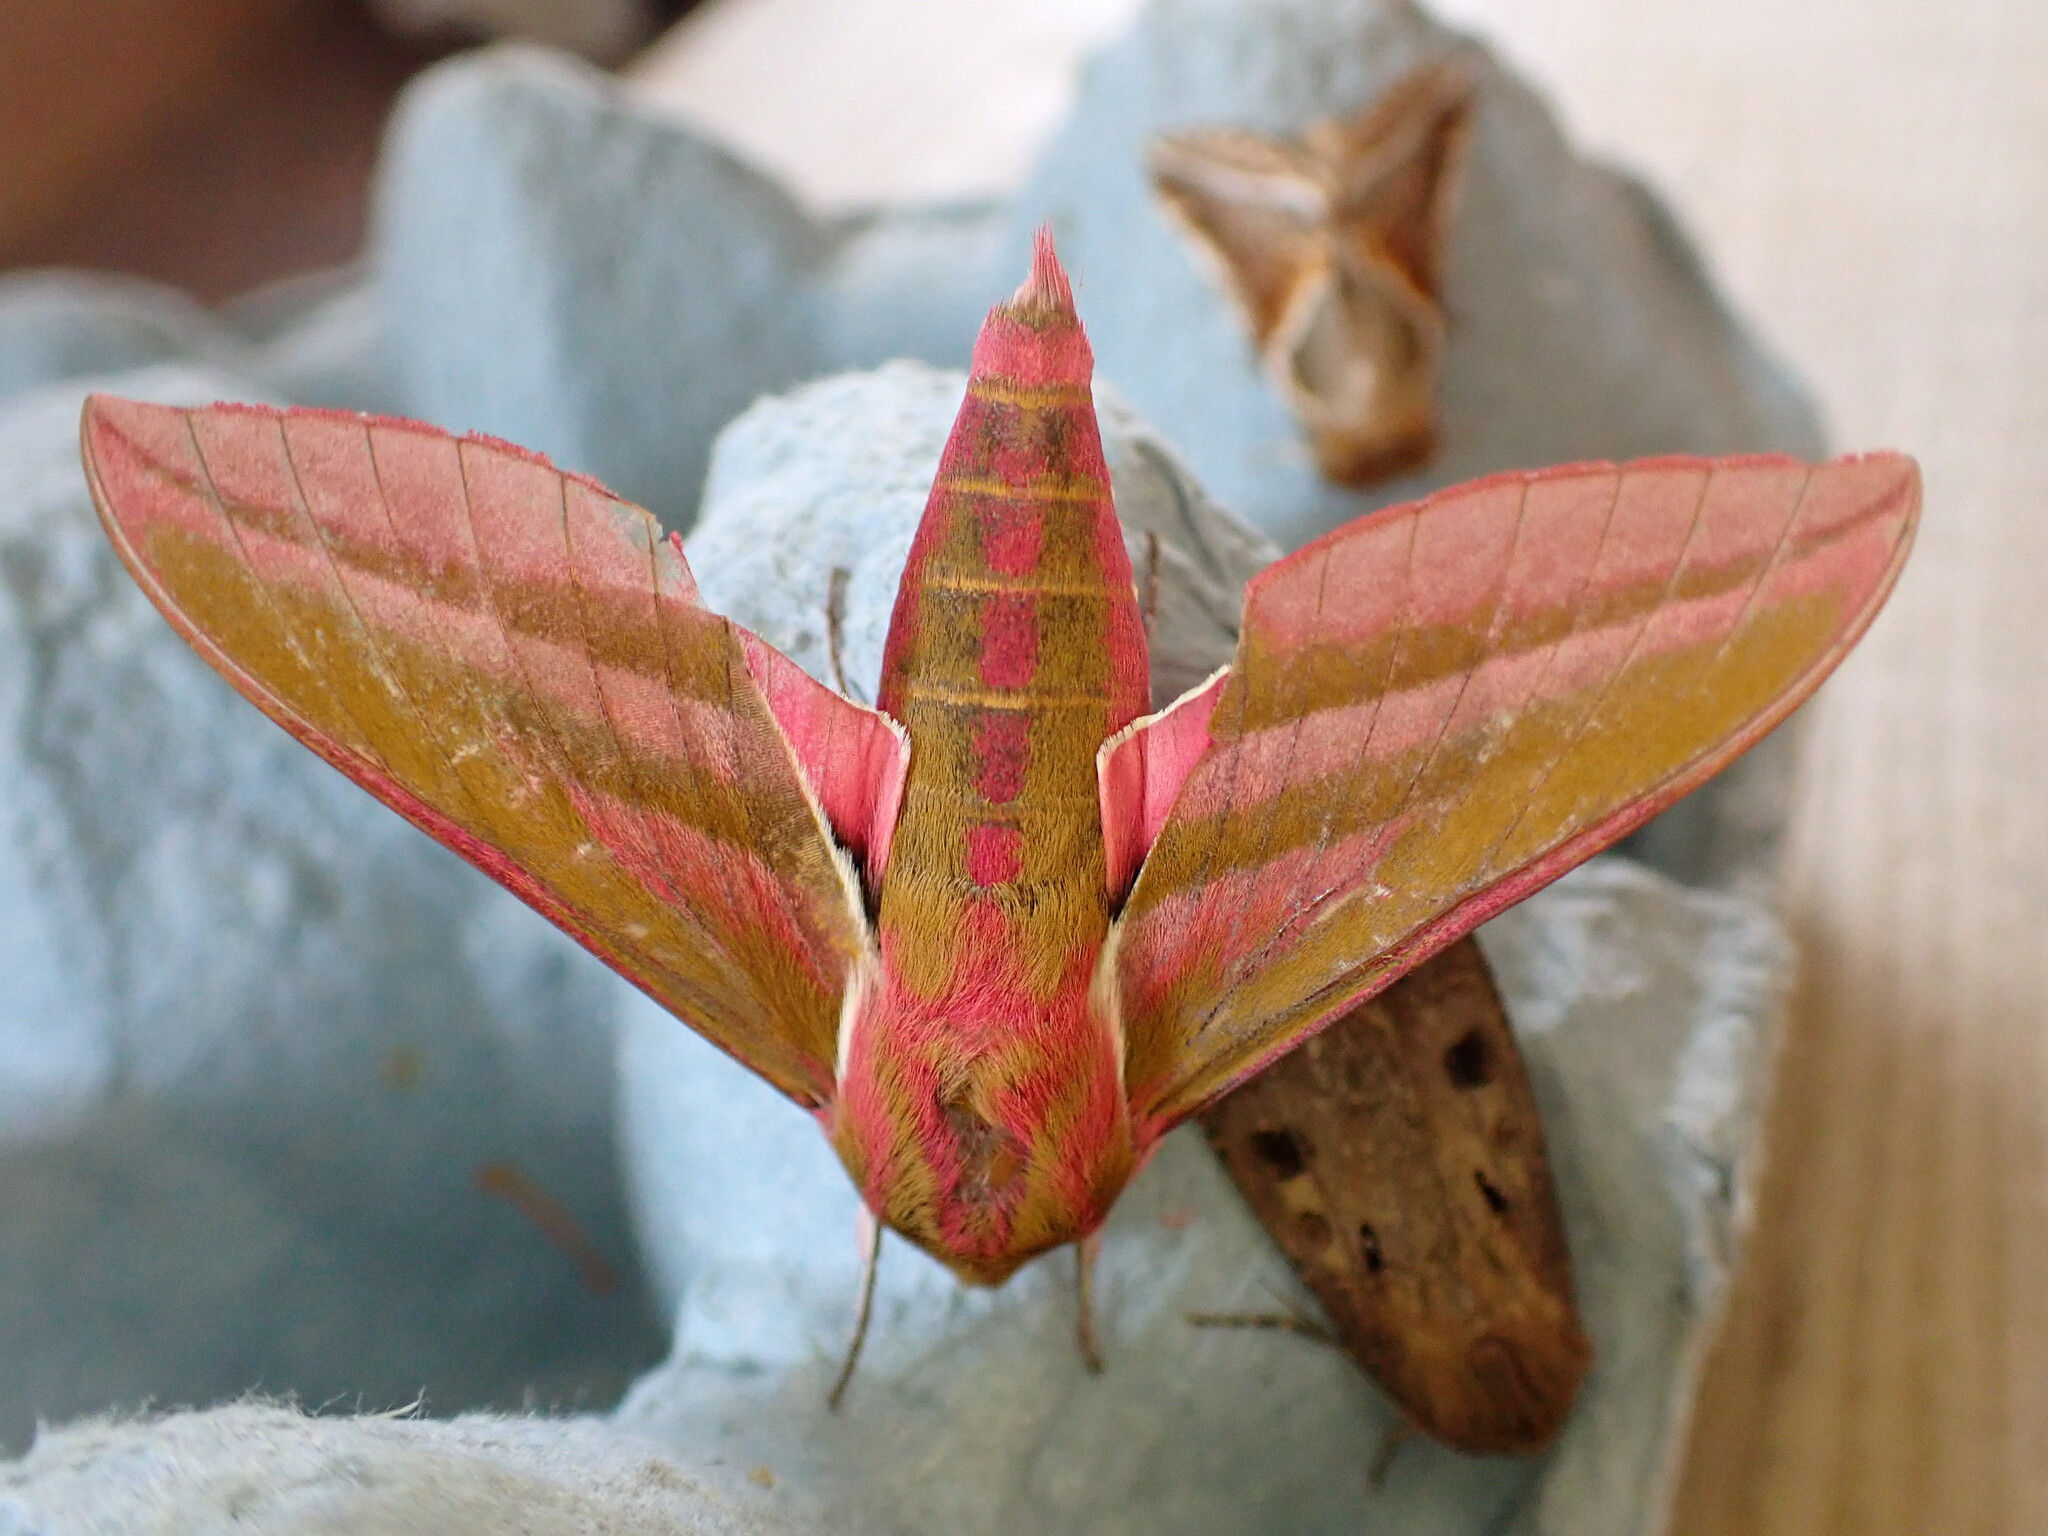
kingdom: Animalia
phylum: Arthropoda
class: Insecta
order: Lepidoptera
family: Sphingidae
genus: Deilephila
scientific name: Deilephila elpenor
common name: Elephant hawk-moth
